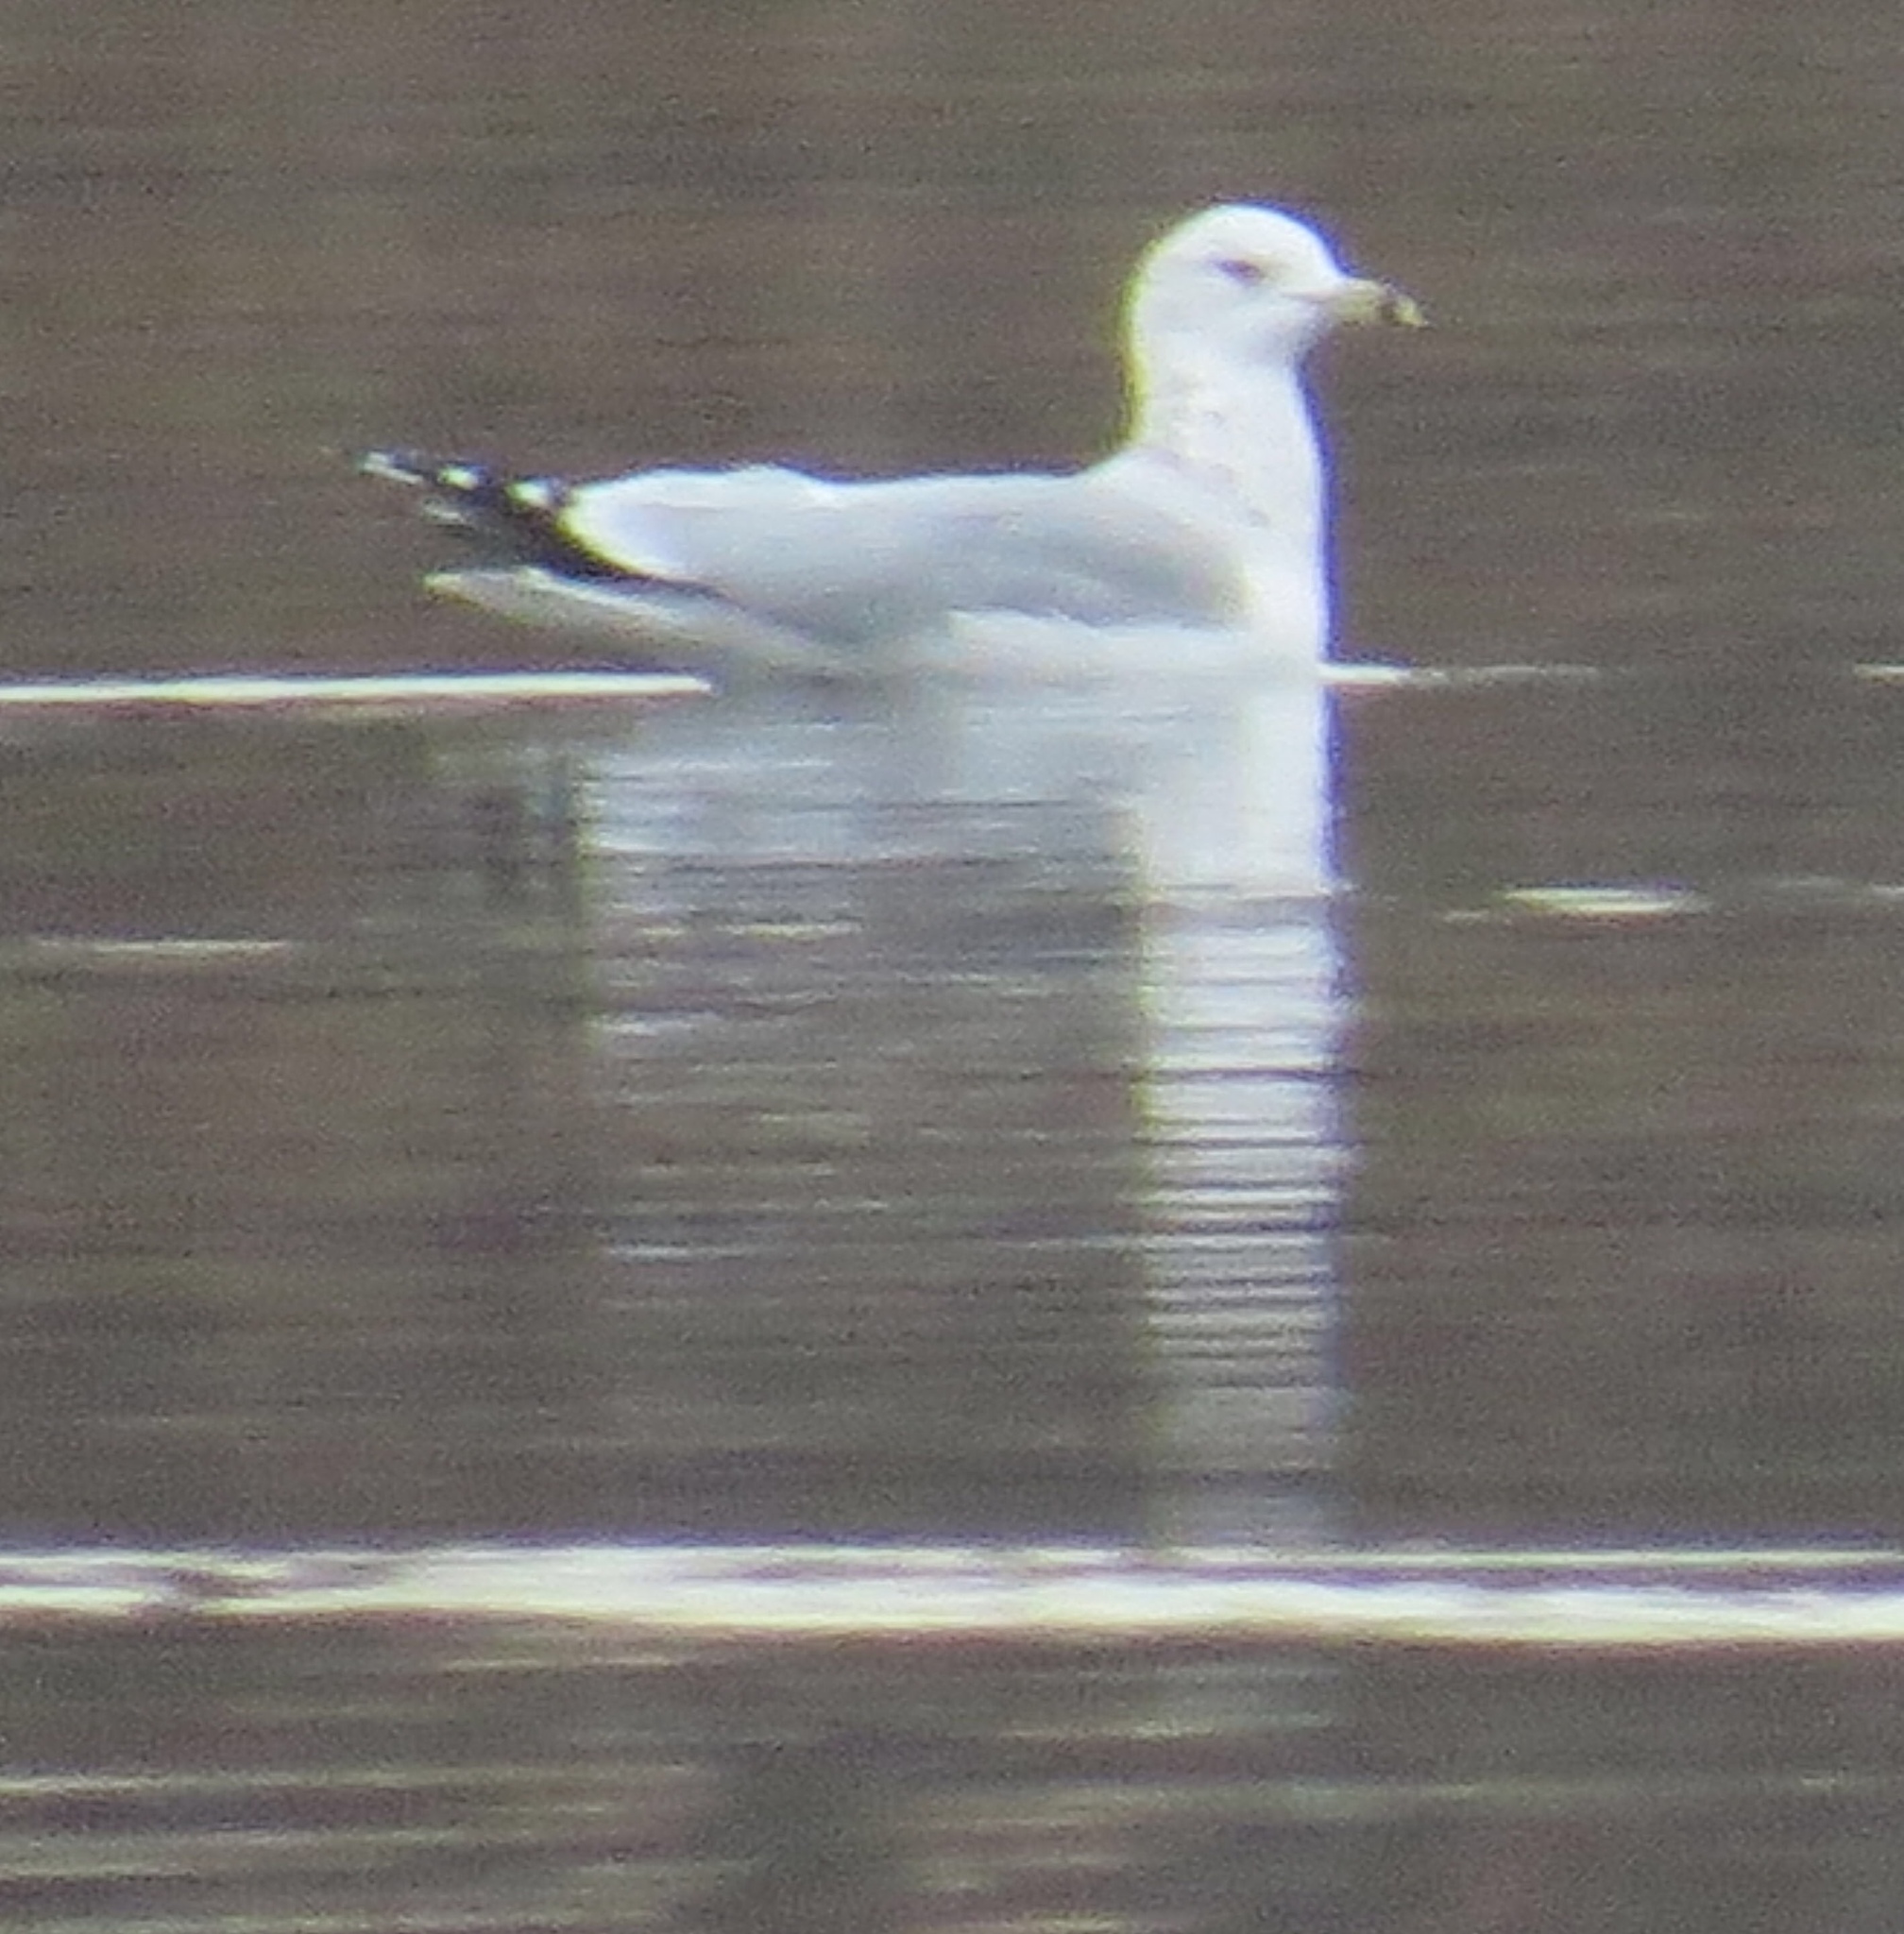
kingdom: Animalia
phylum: Chordata
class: Aves
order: Charadriiformes
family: Laridae
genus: Larus
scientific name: Larus delawarensis
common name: Ring-billed gull
